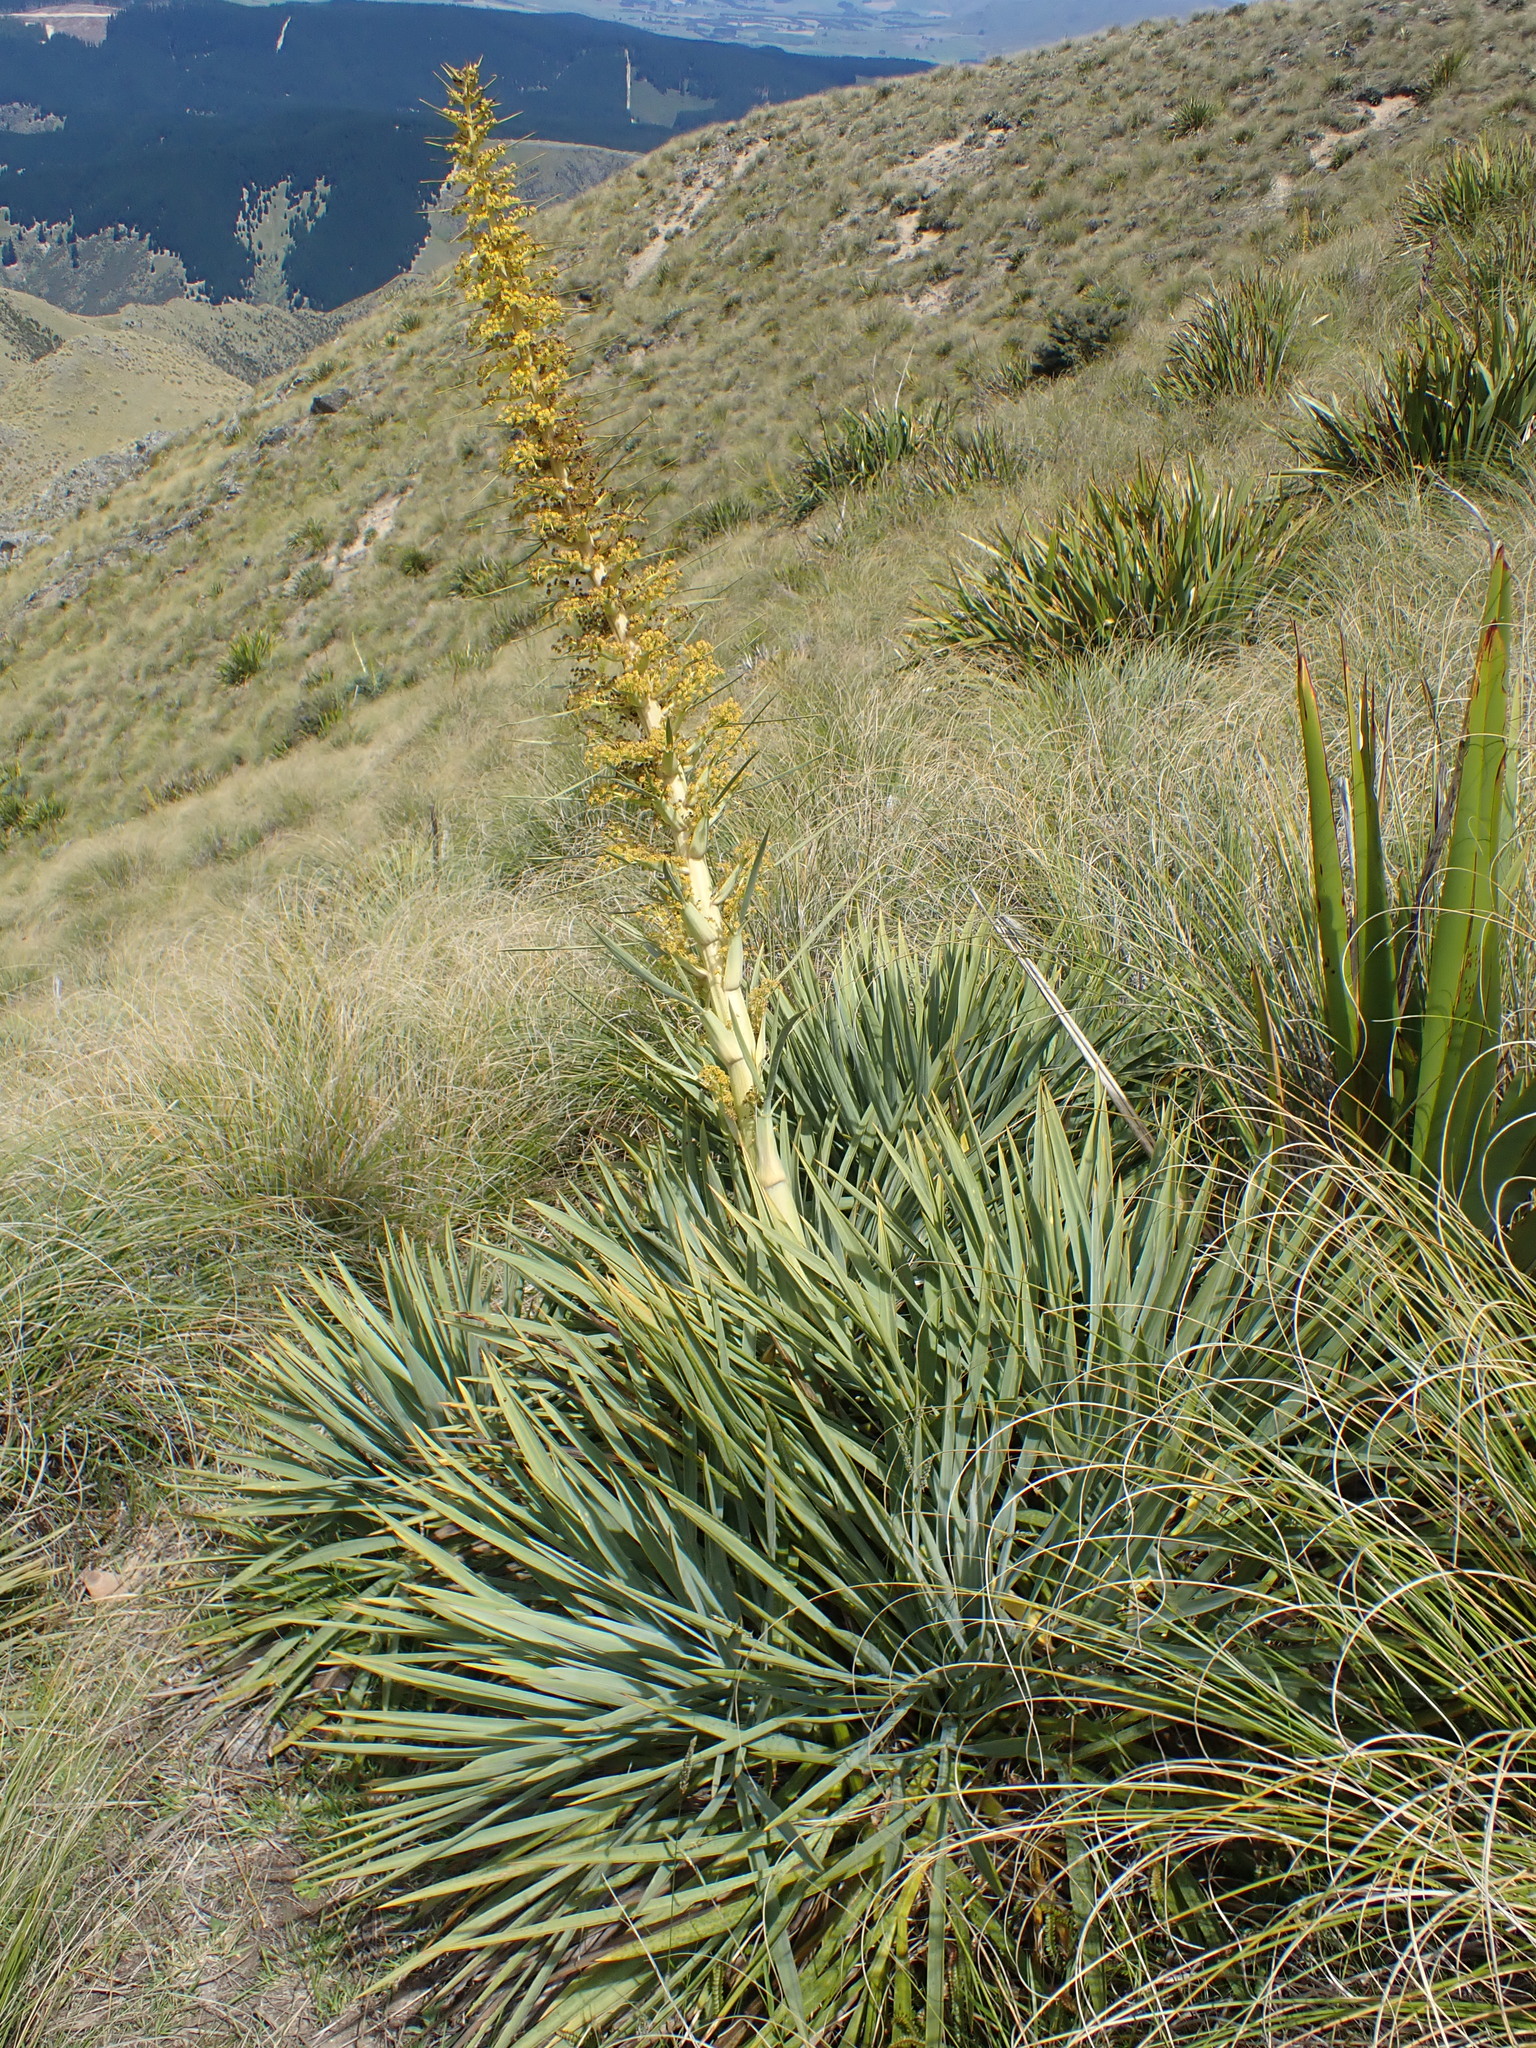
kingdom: Plantae
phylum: Tracheophyta
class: Magnoliopsida
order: Apiales
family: Apiaceae
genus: Aciphylla
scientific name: Aciphylla scott-thomsonii
